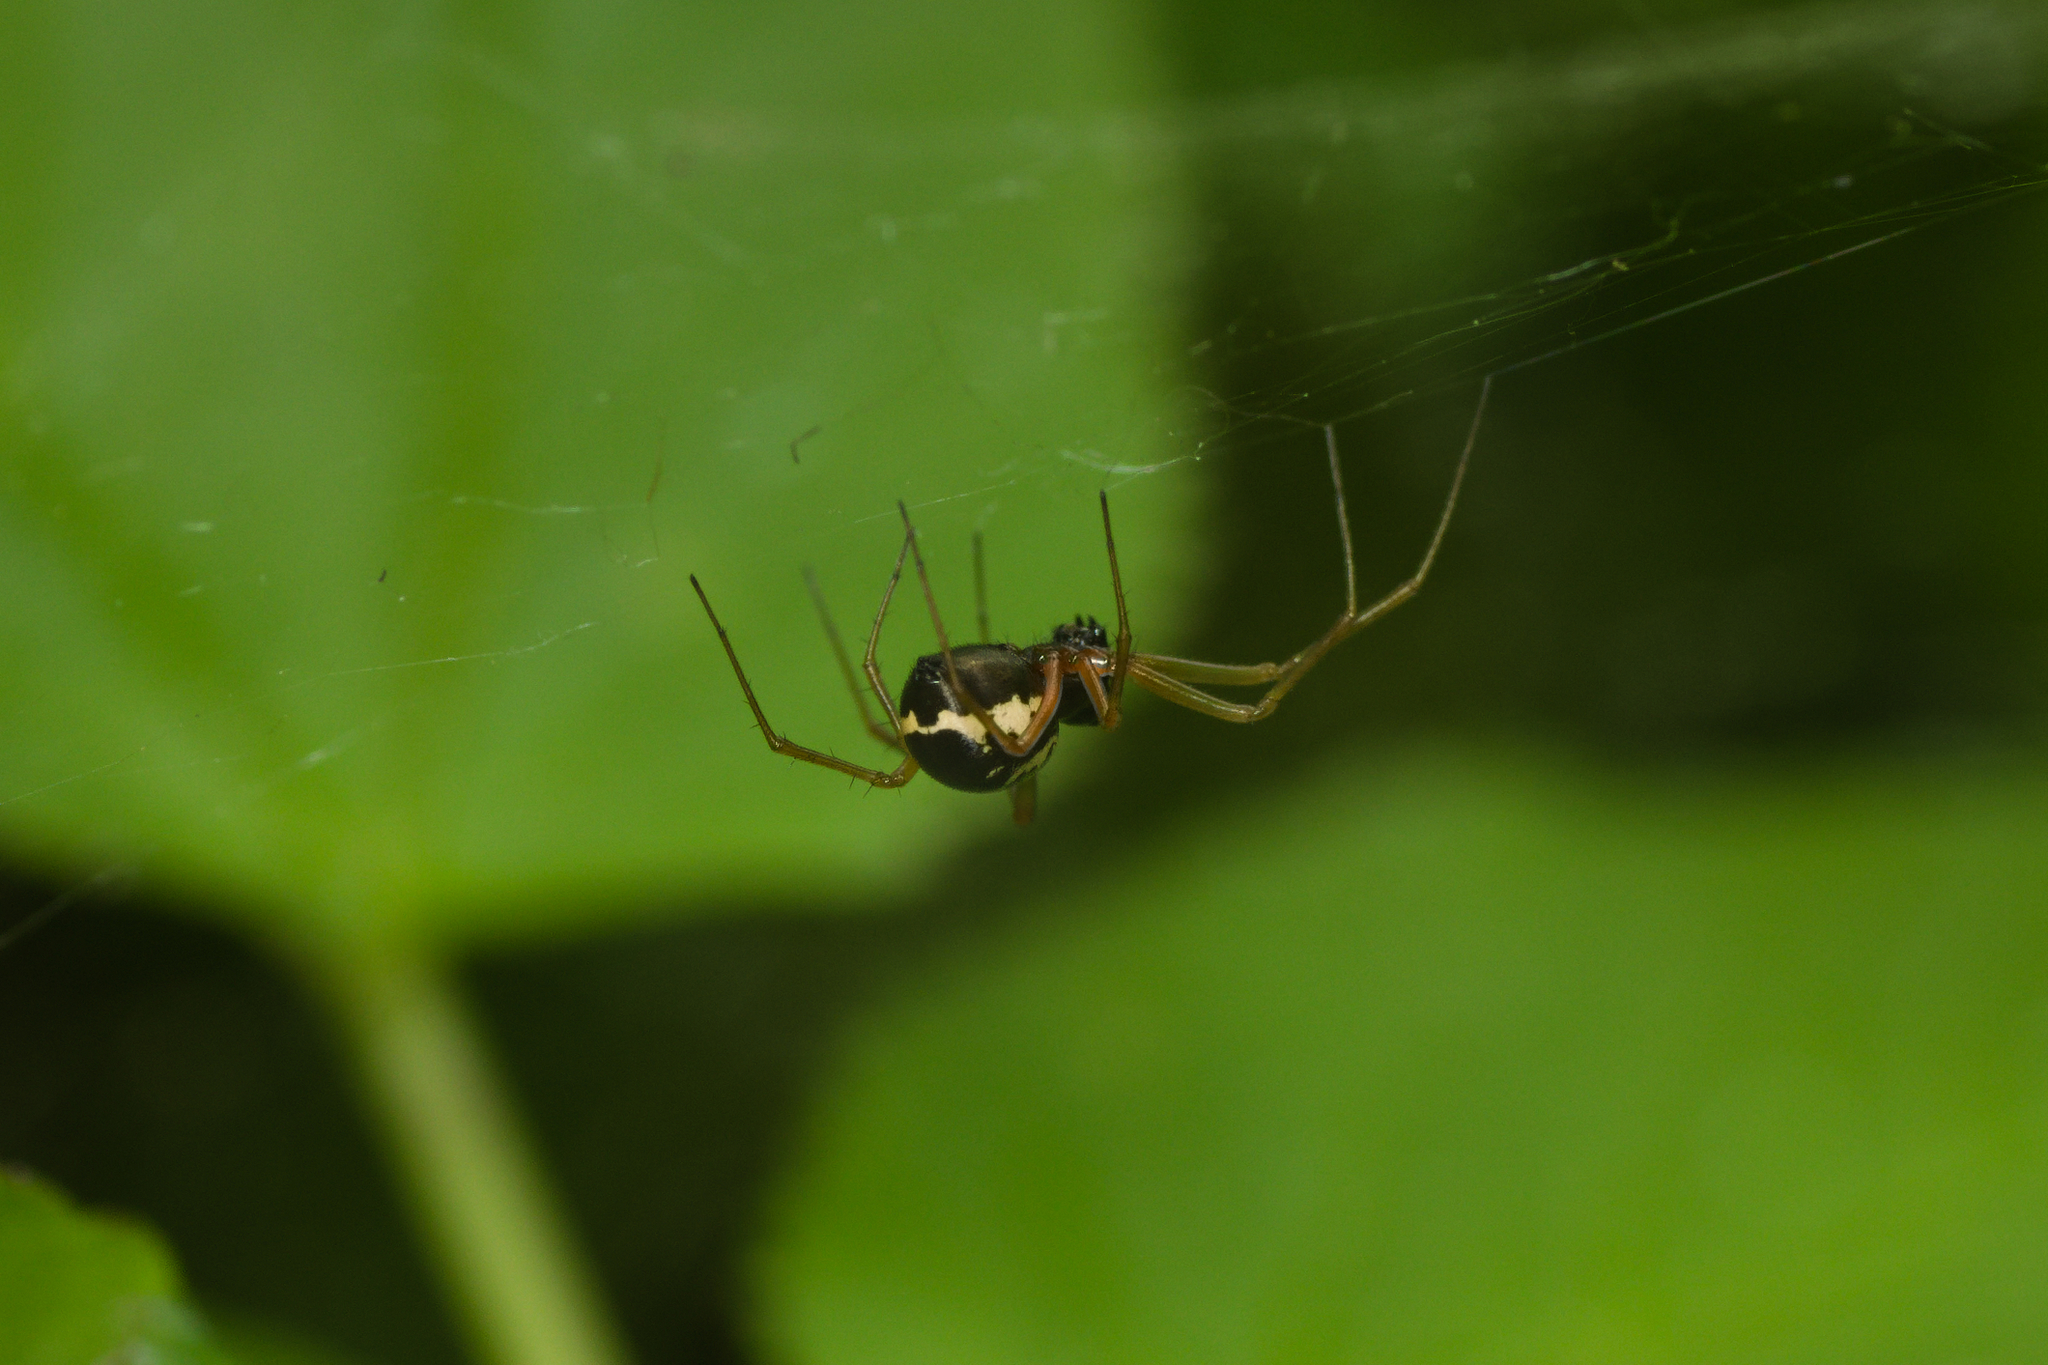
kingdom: Animalia
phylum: Arthropoda
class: Arachnida
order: Araneae
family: Linyphiidae
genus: Linyphia
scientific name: Linyphia hortensis
